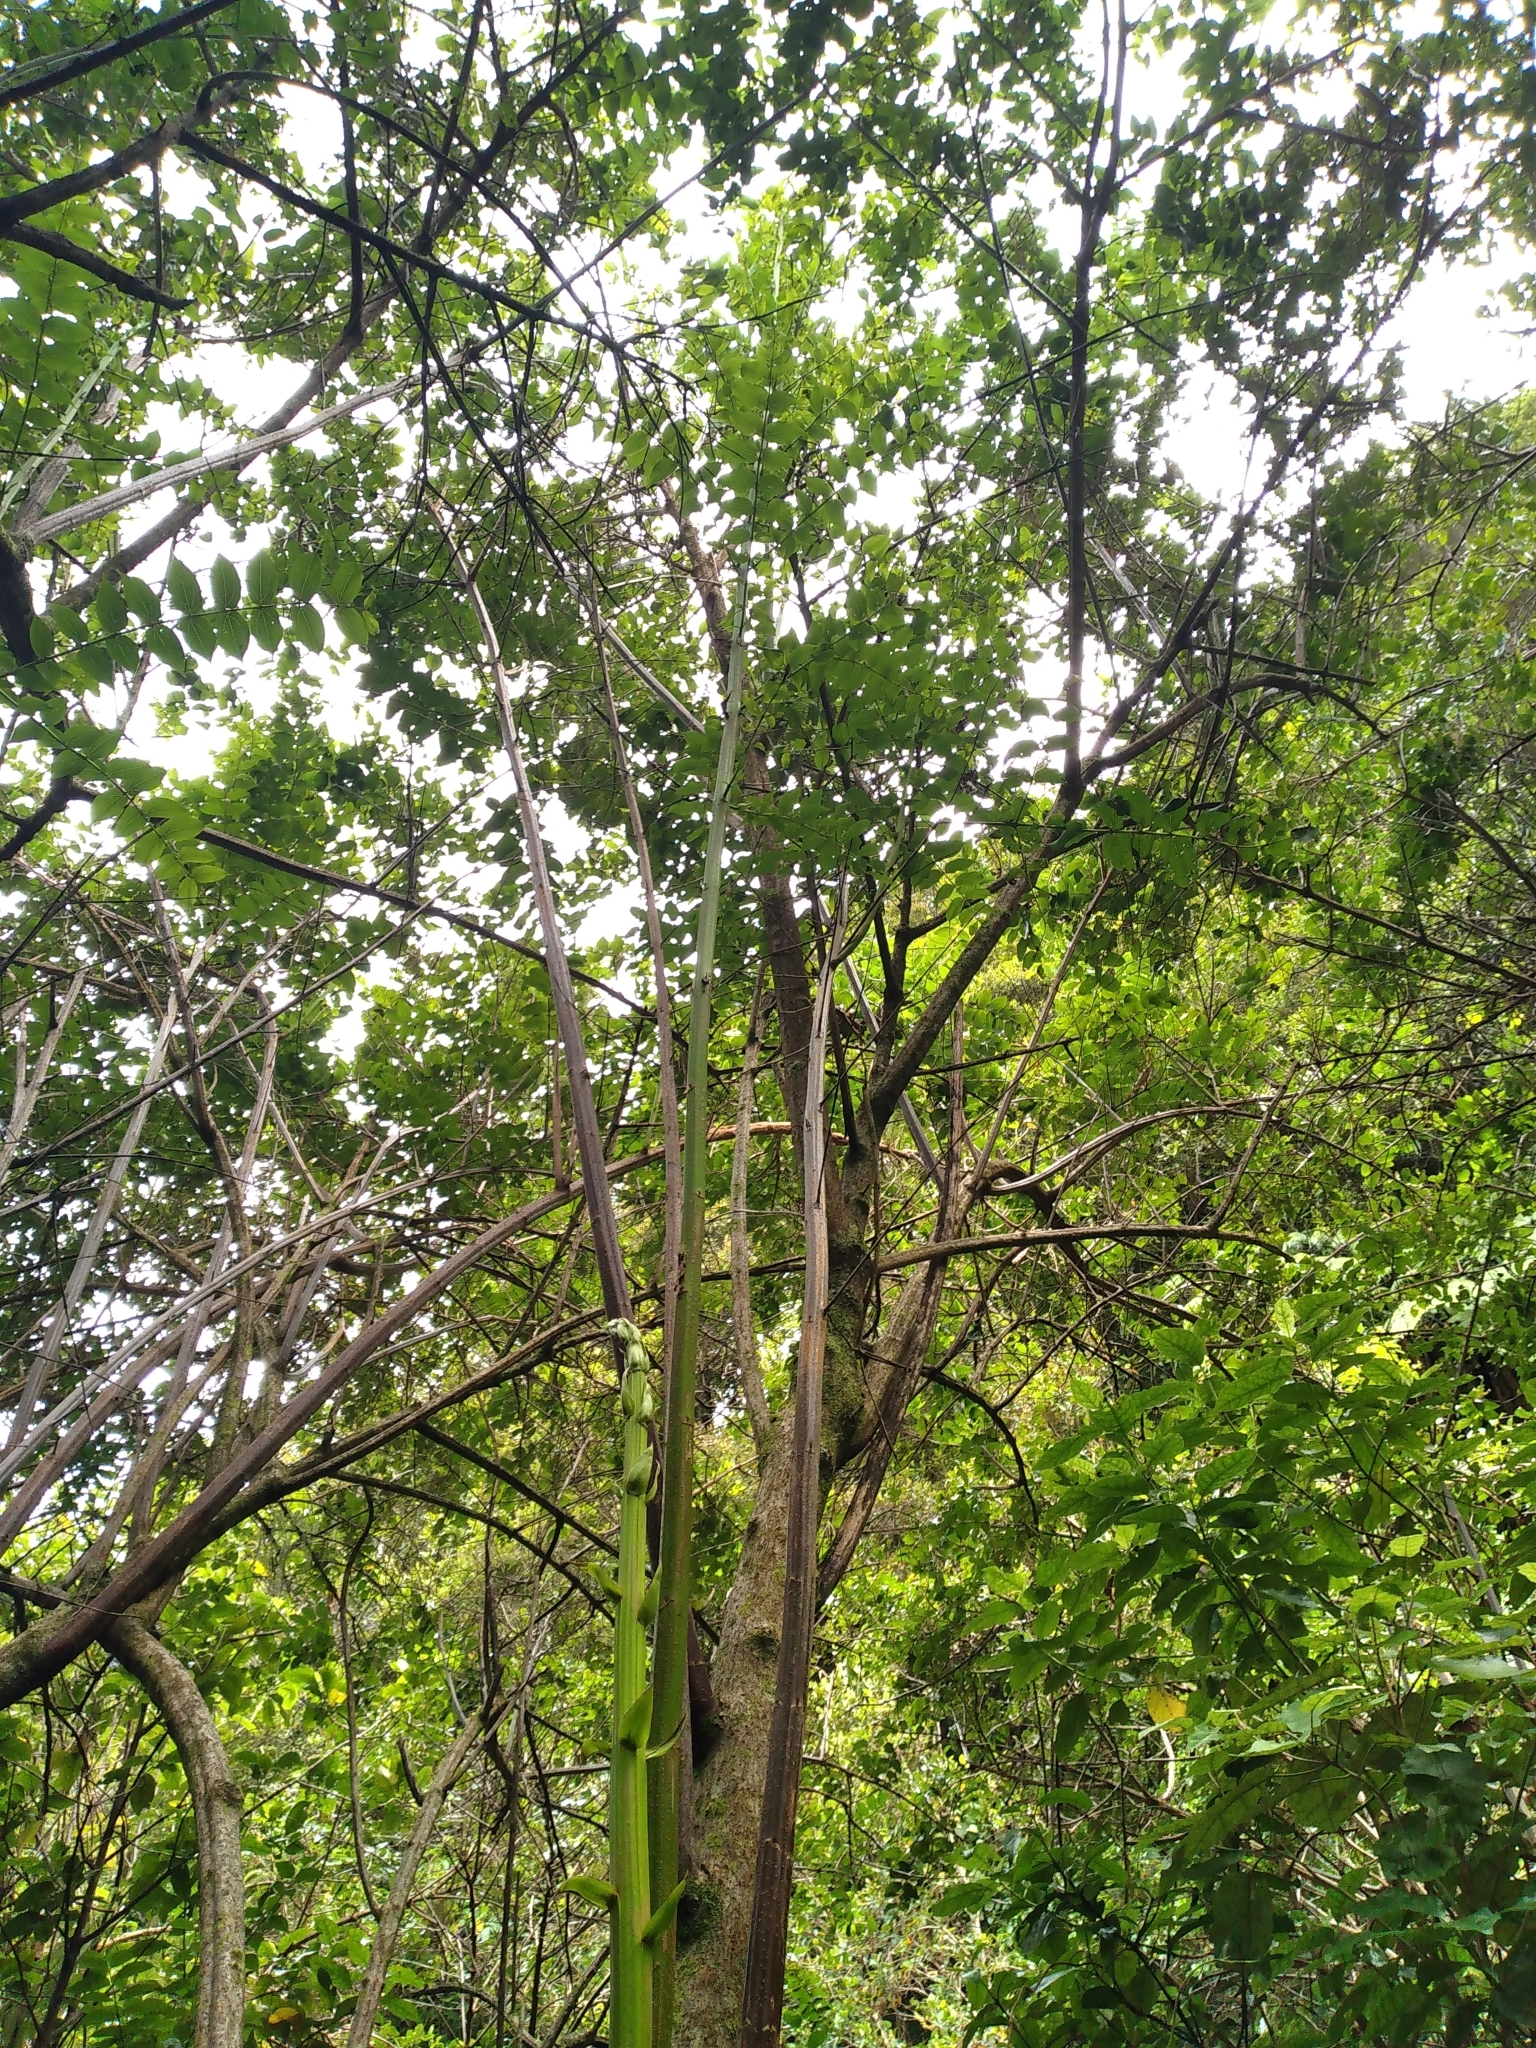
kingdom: Plantae
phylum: Tracheophyta
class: Magnoliopsida
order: Cucurbitales
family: Coriariaceae
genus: Coriaria
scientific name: Coriaria arborea
